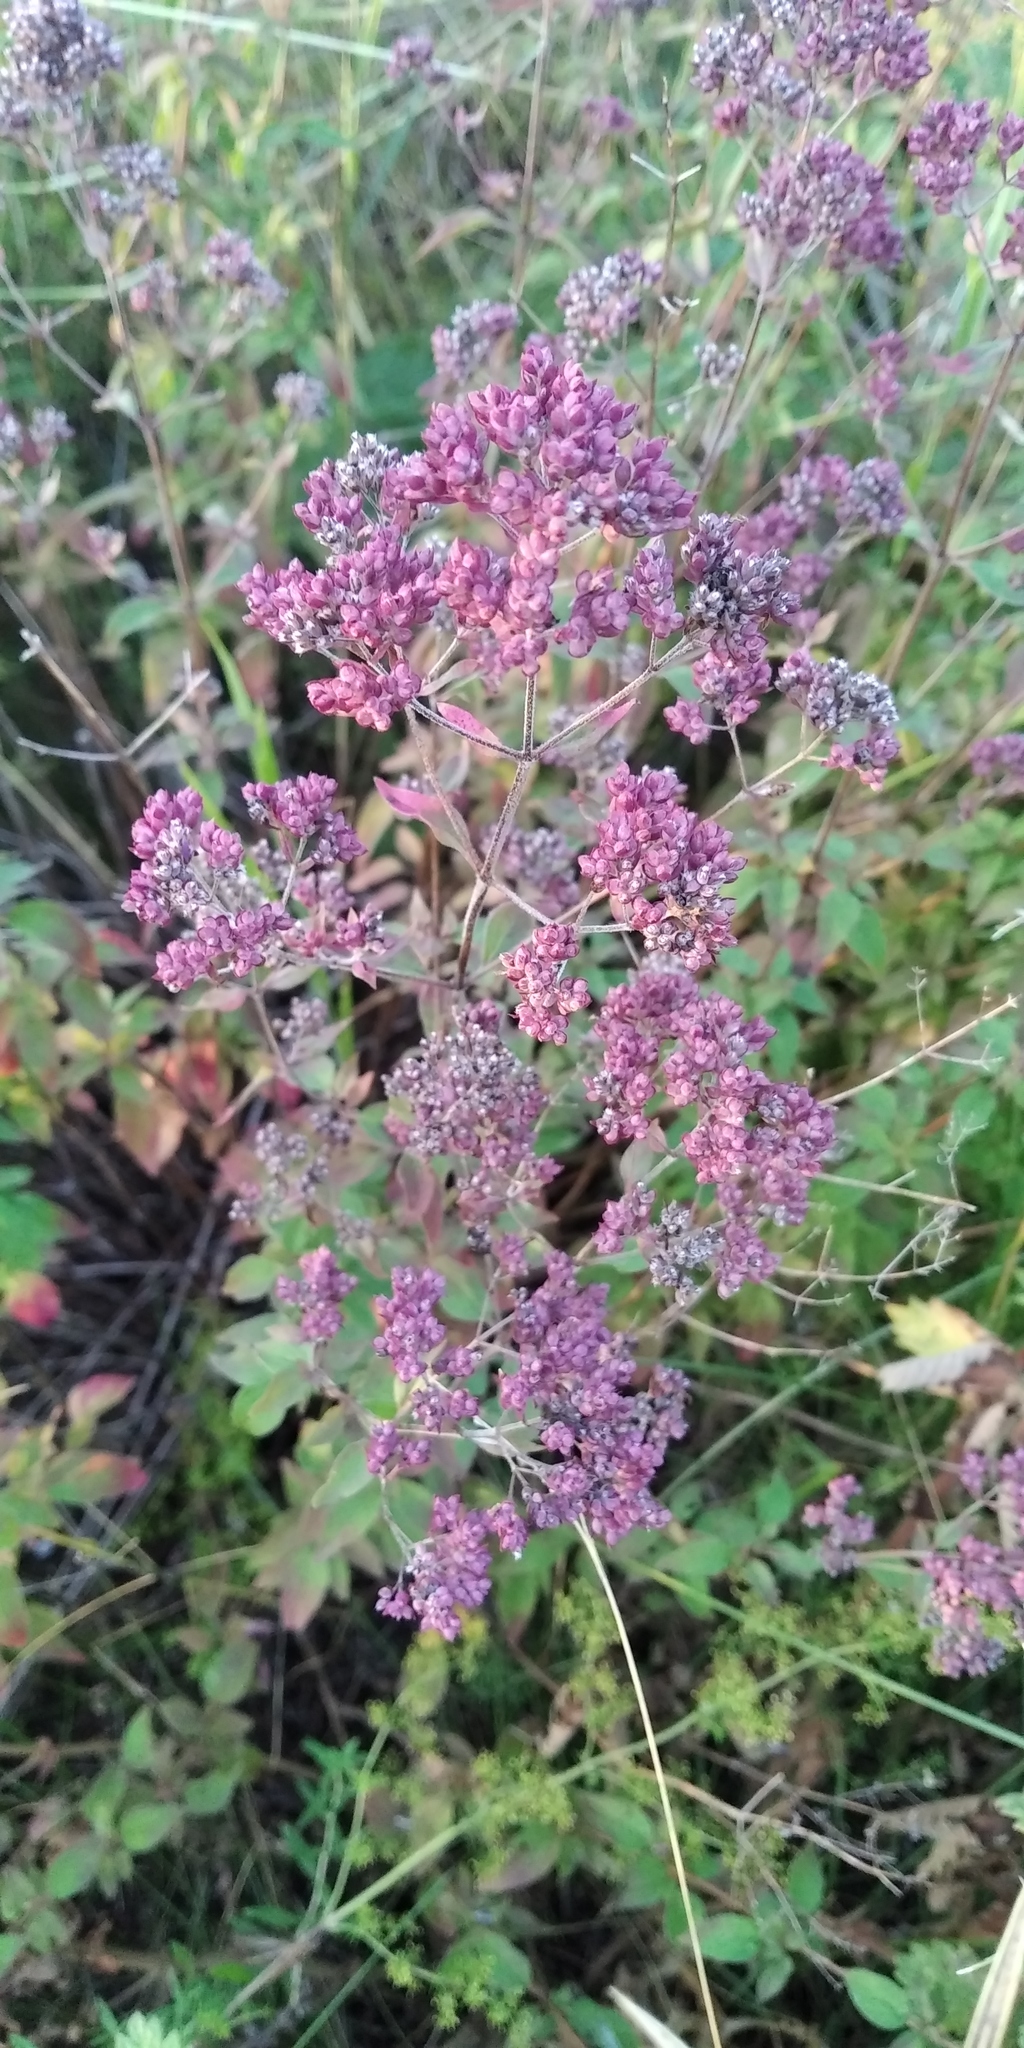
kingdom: Plantae
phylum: Tracheophyta
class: Magnoliopsida
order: Lamiales
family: Lamiaceae
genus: Origanum
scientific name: Origanum vulgare
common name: Wild marjoram
